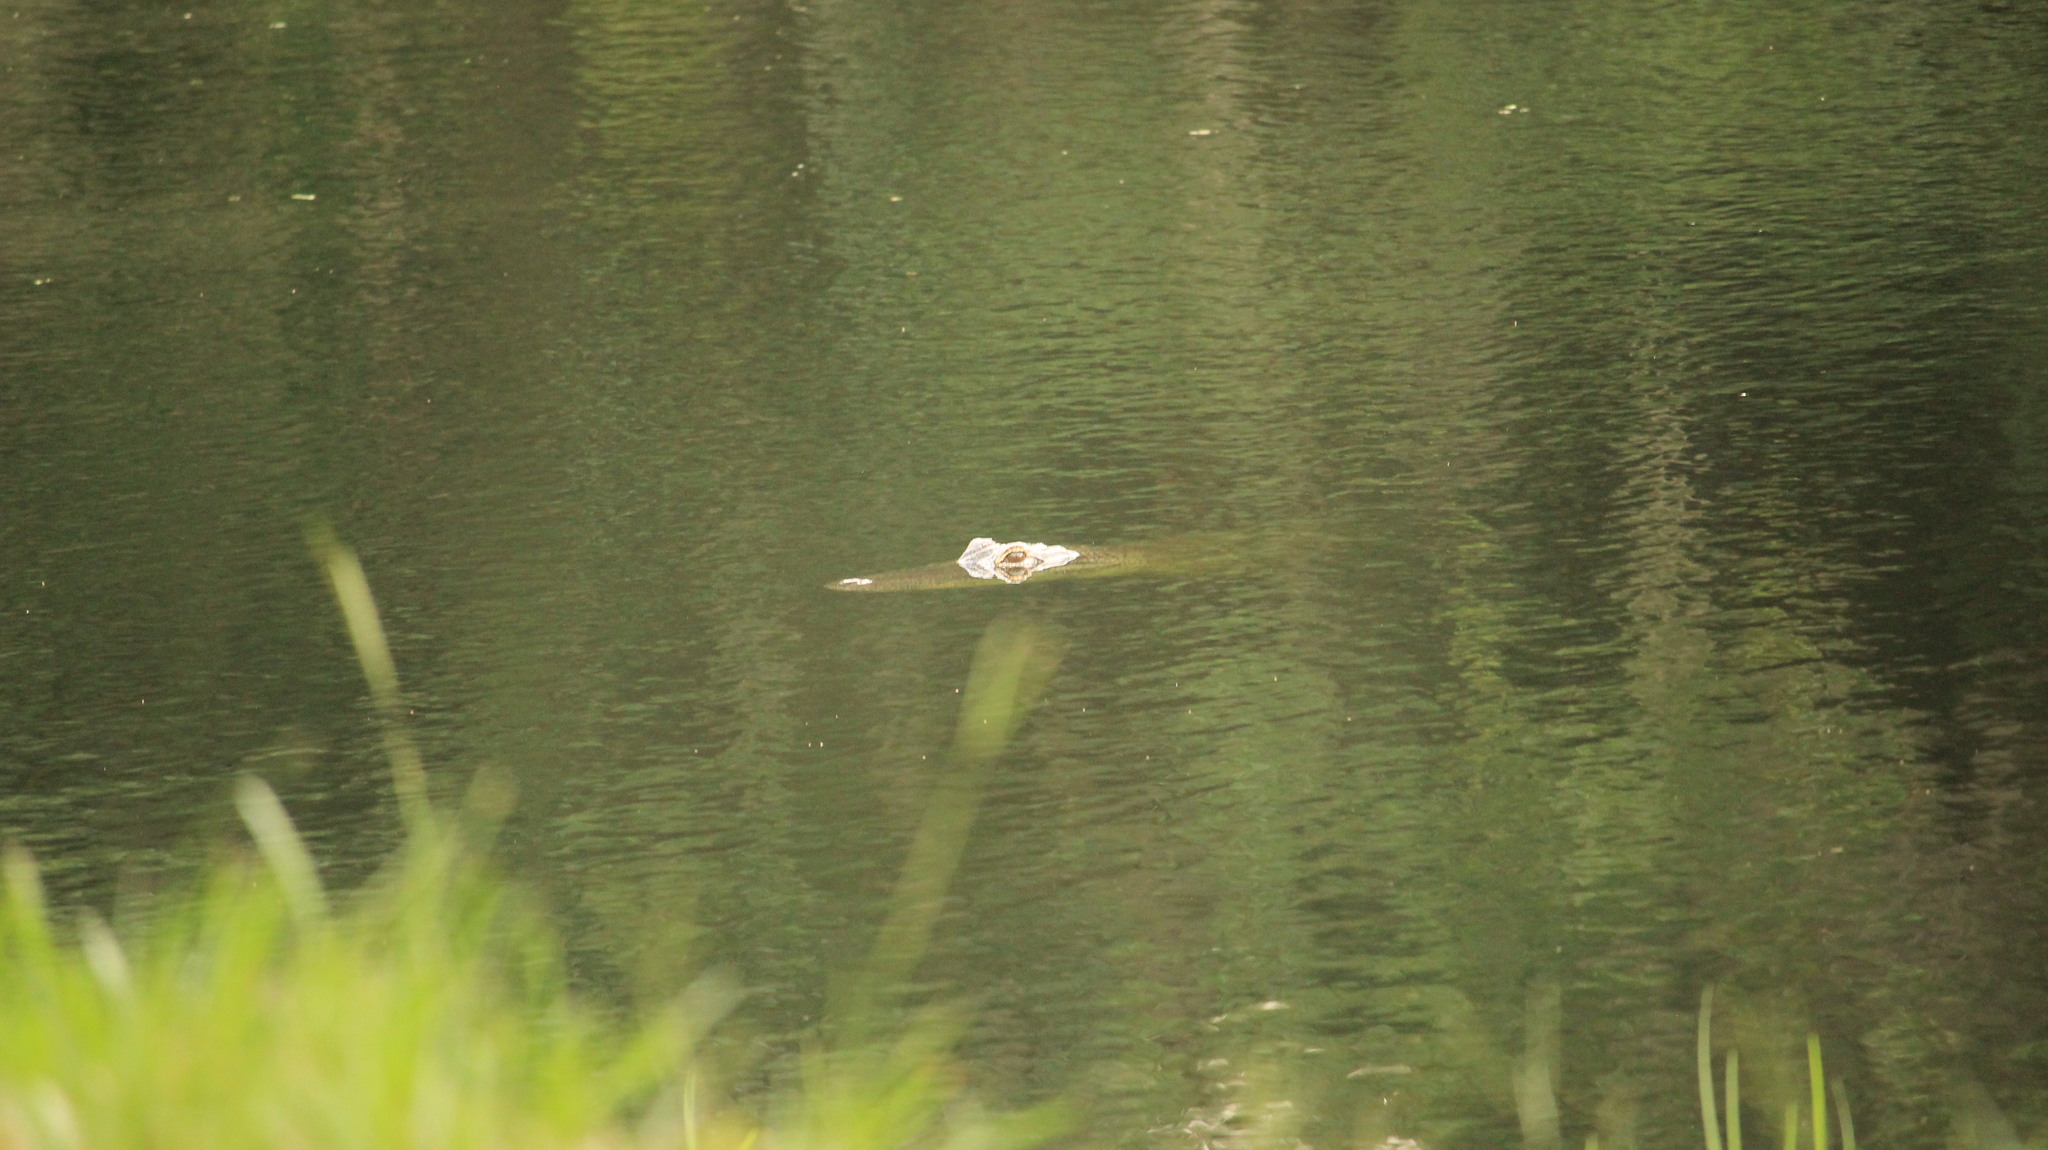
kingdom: Animalia
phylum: Chordata
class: Crocodylia
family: Alligatoridae
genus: Alligator
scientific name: Alligator mississippiensis
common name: American alligator
